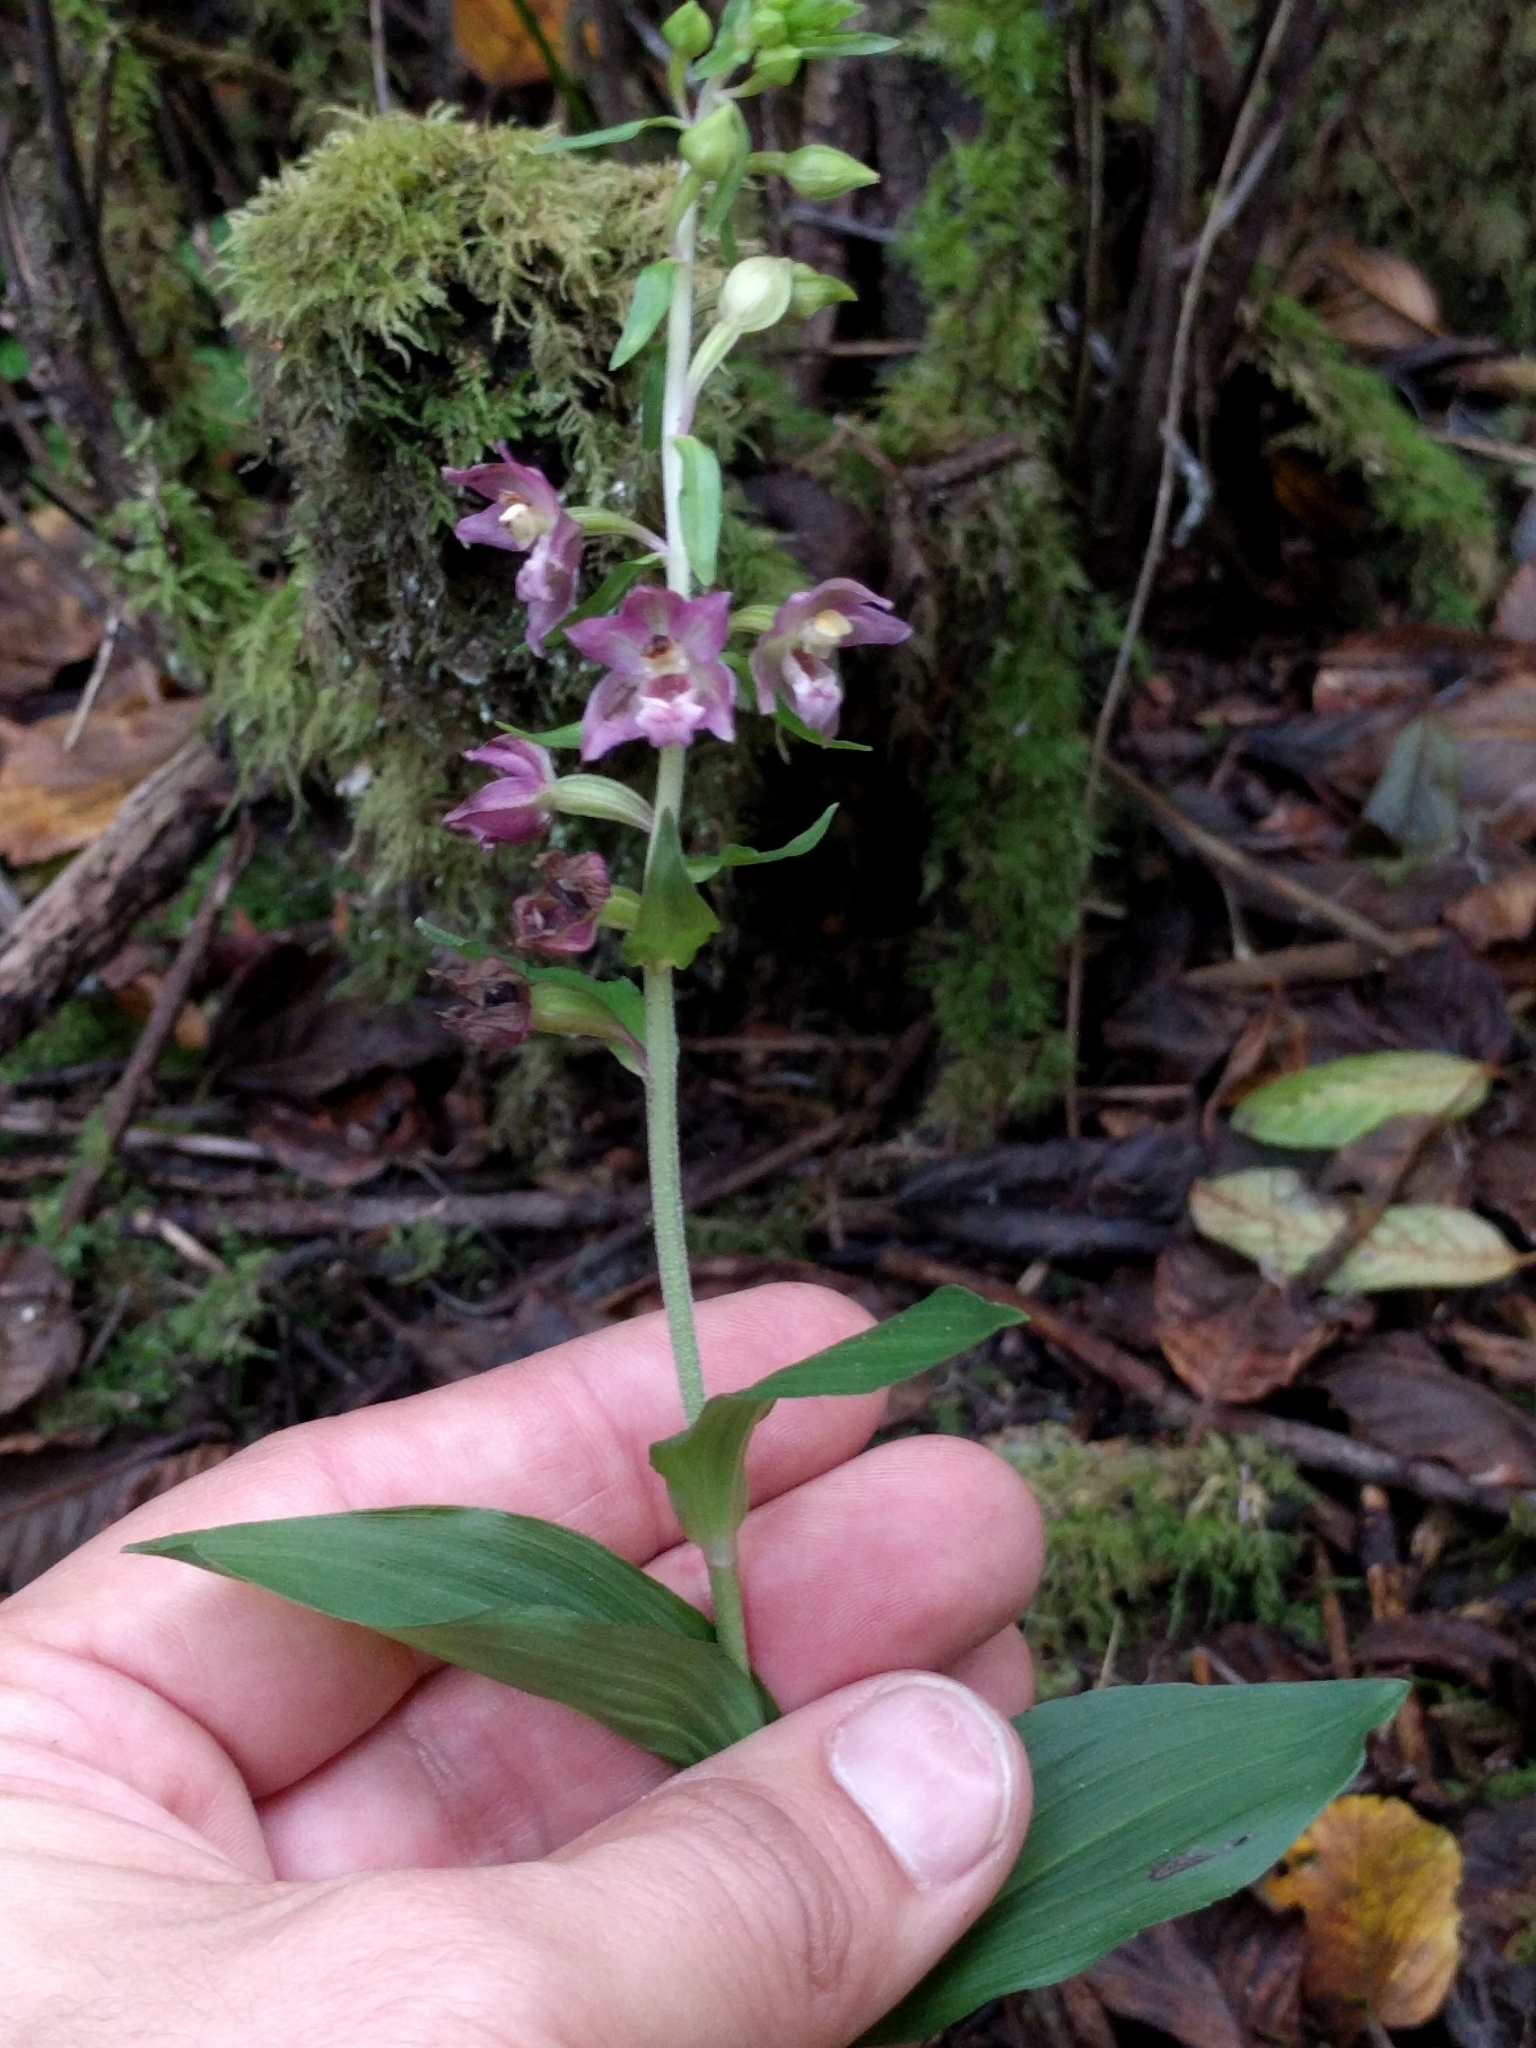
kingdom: Plantae
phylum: Tracheophyta
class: Liliopsida
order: Asparagales
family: Orchidaceae
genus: Epipactis
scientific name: Epipactis helleborine
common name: Broad-leaved helleborine
